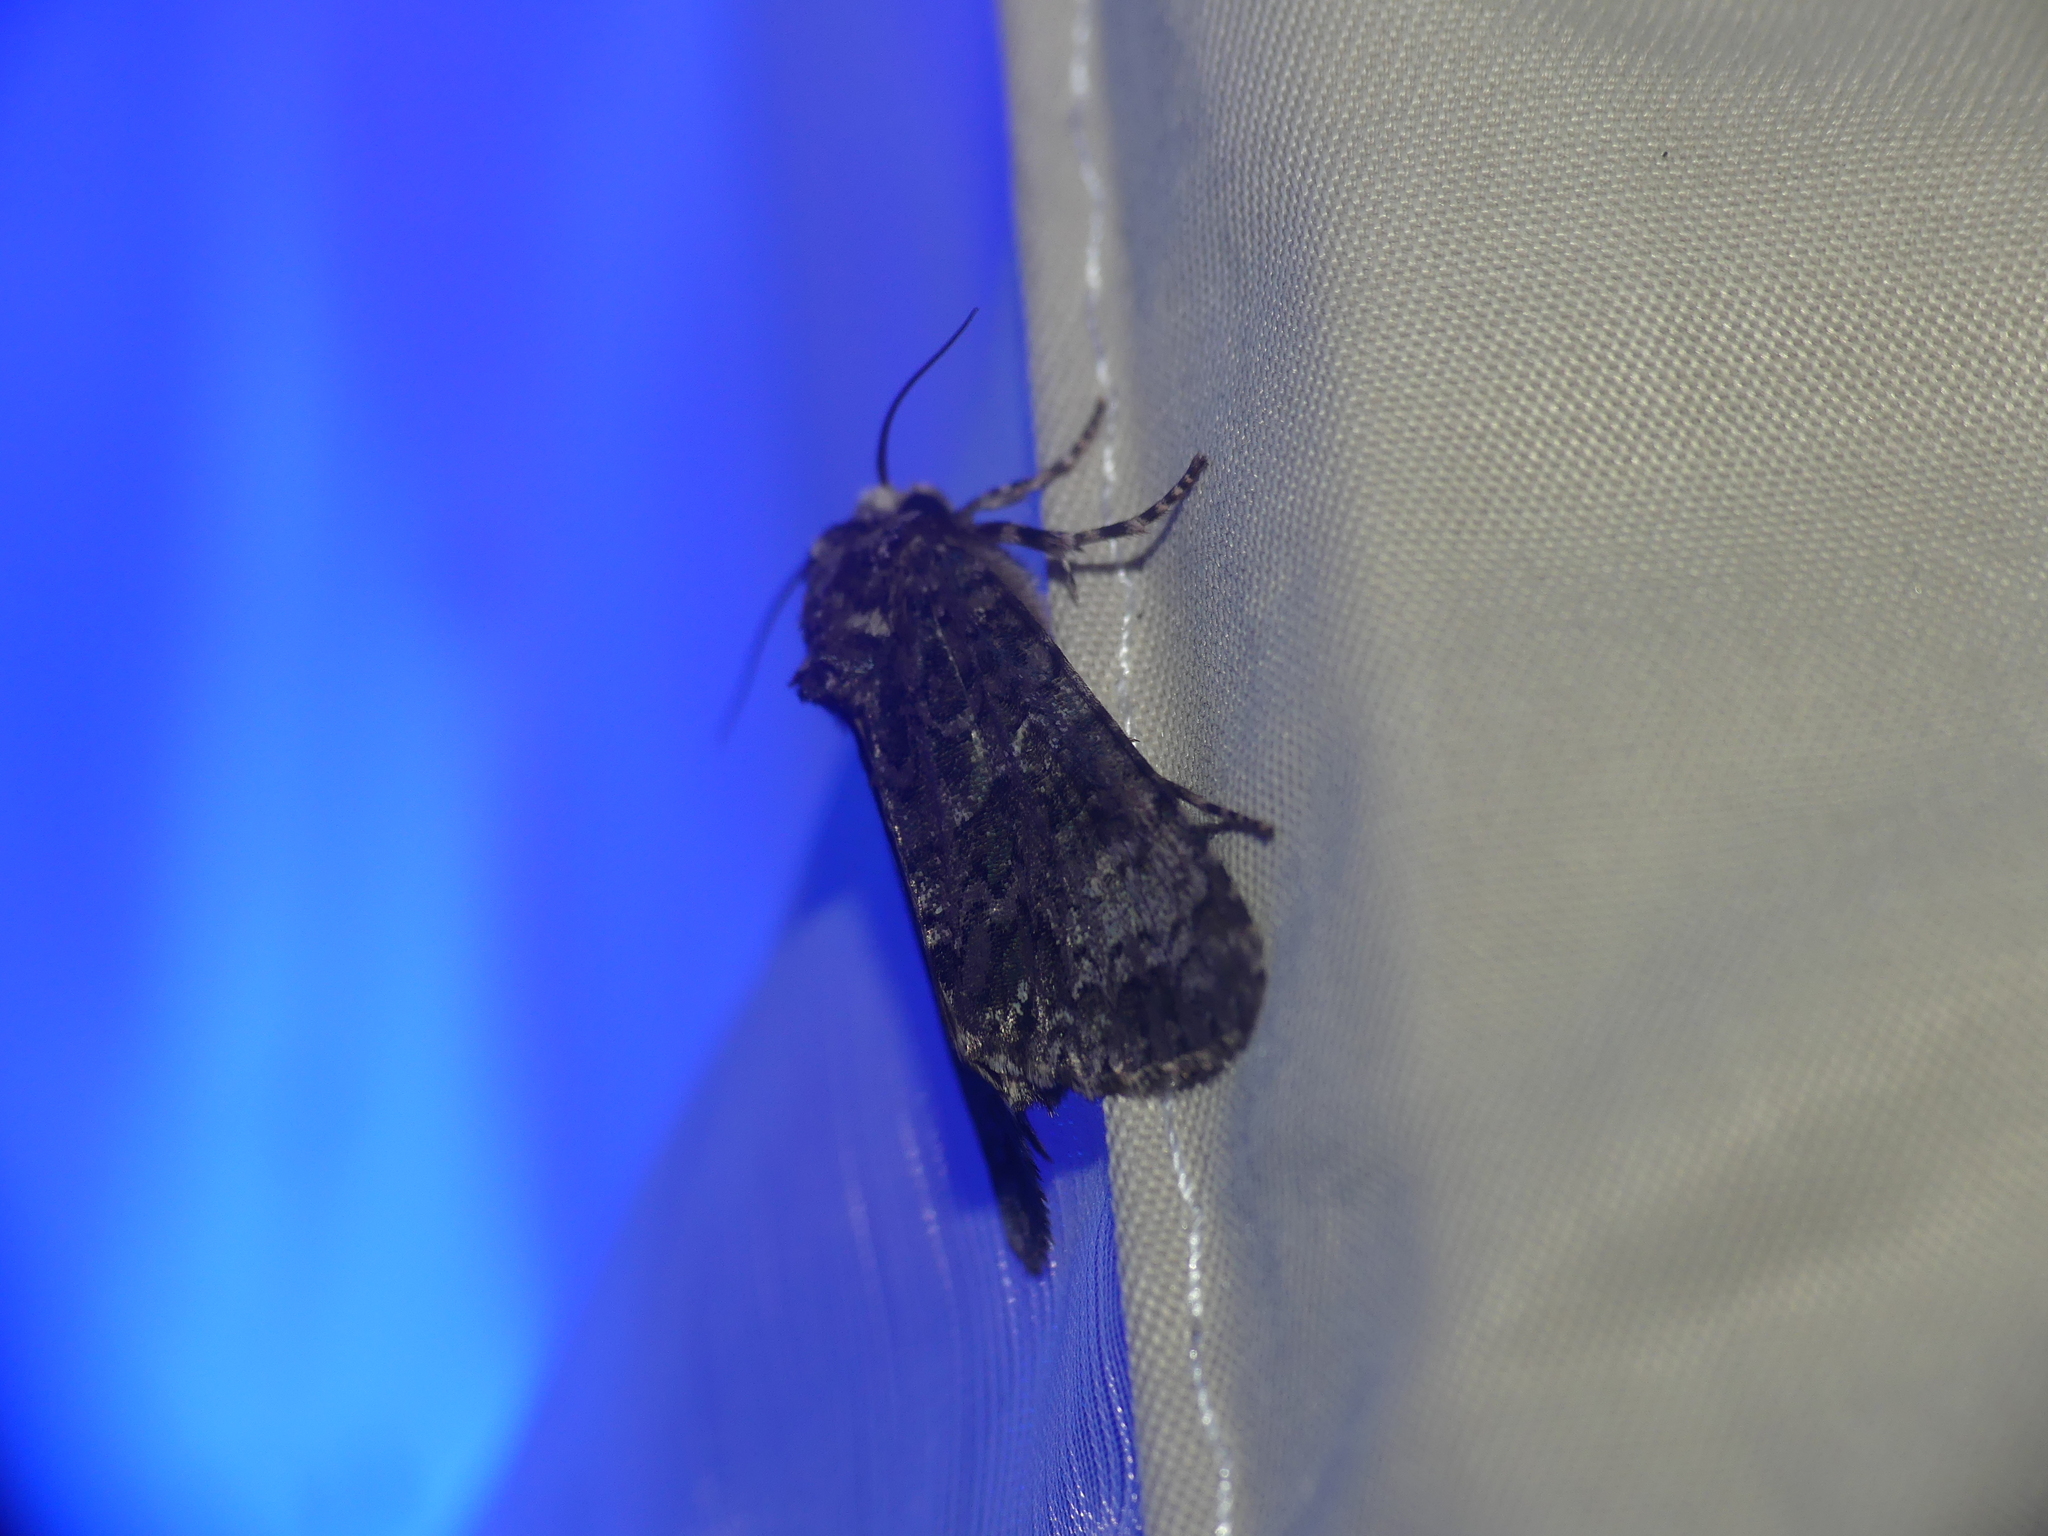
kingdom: Animalia
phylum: Arthropoda
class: Insecta
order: Lepidoptera
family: Noctuidae
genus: Craniophora
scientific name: Craniophora ligustri
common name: Coronet
